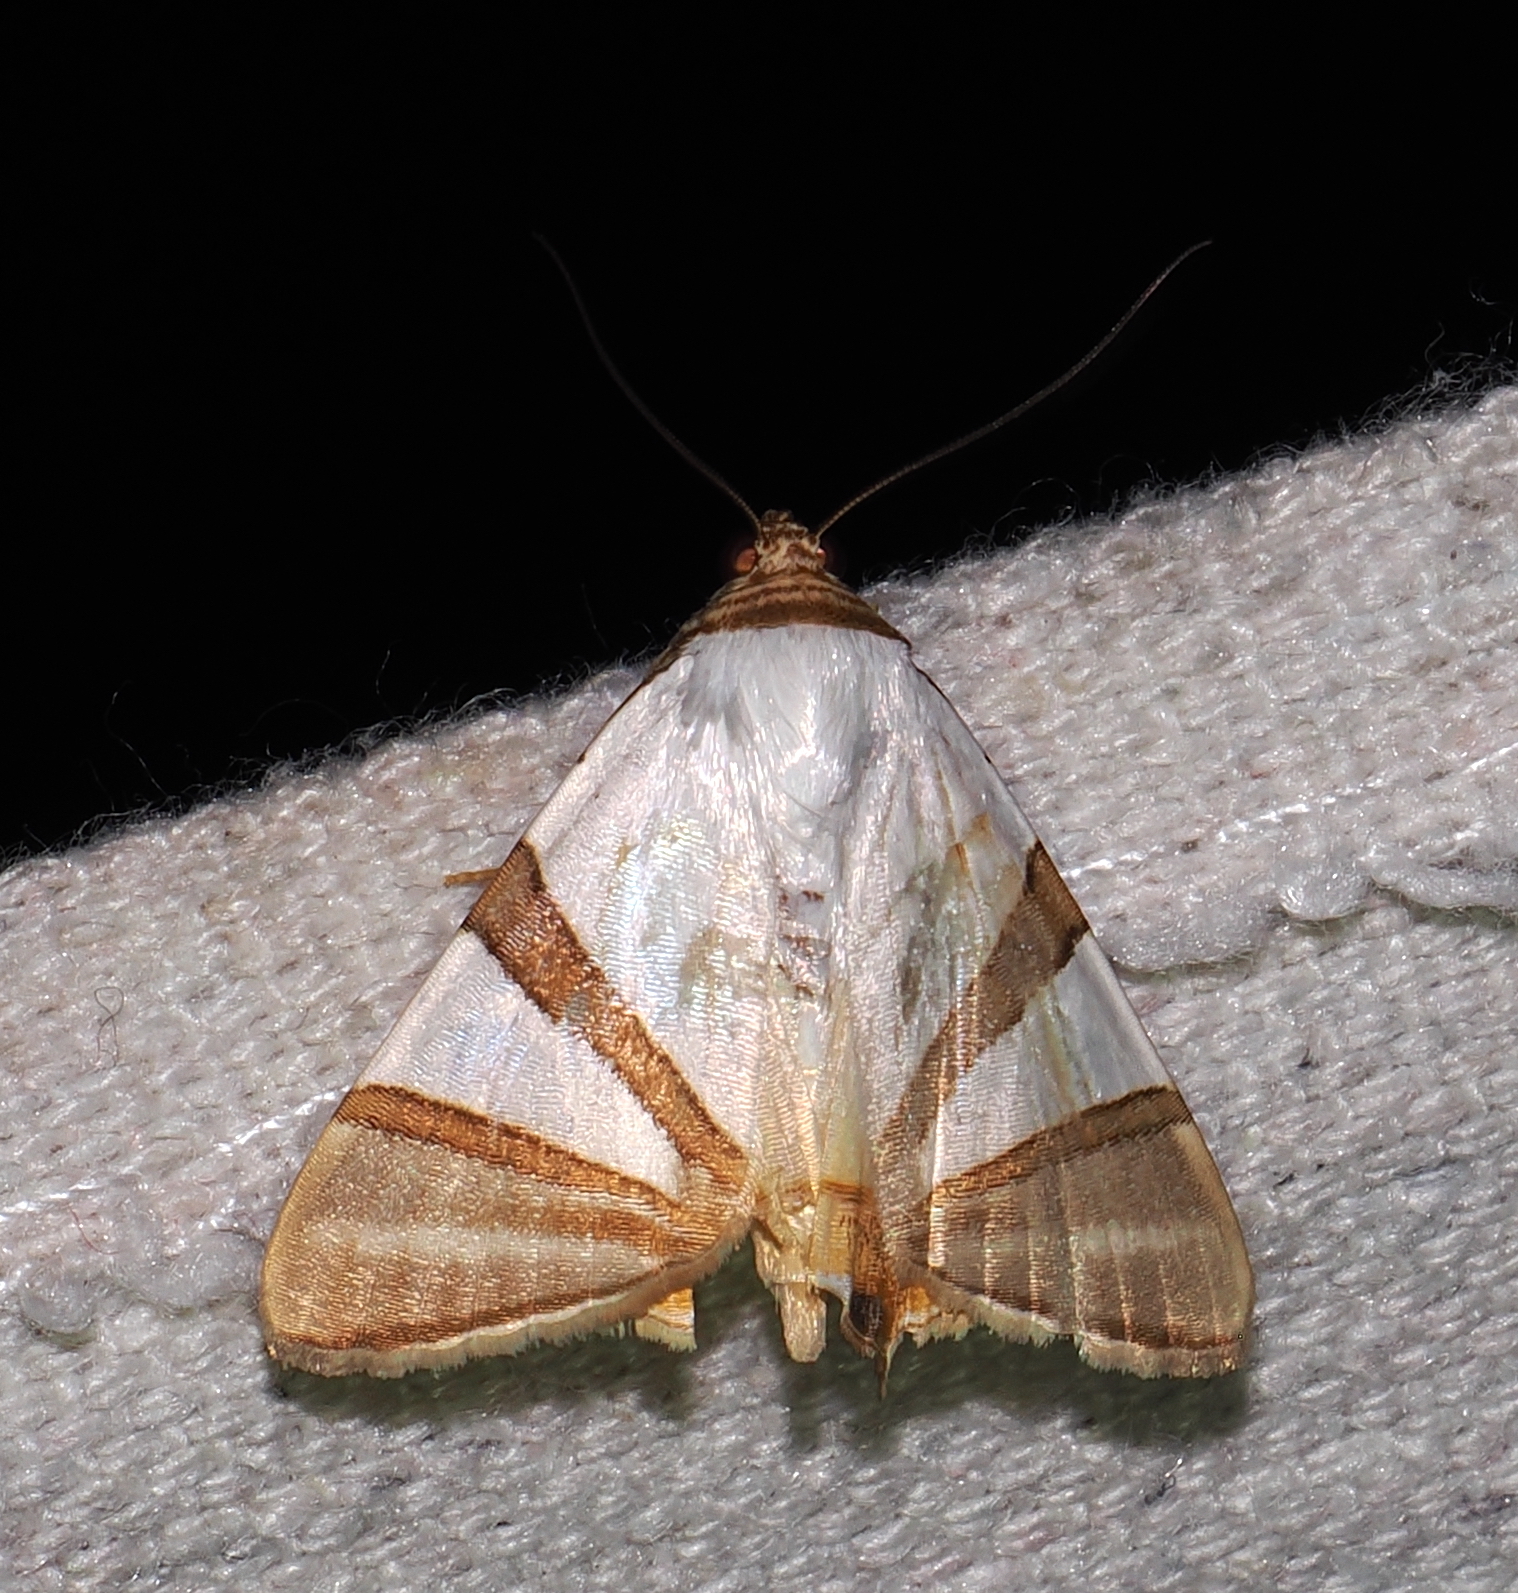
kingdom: Animalia
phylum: Arthropoda
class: Insecta
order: Lepidoptera
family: Erebidae
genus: Eulepidotis
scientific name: Eulepidotis persimilis
